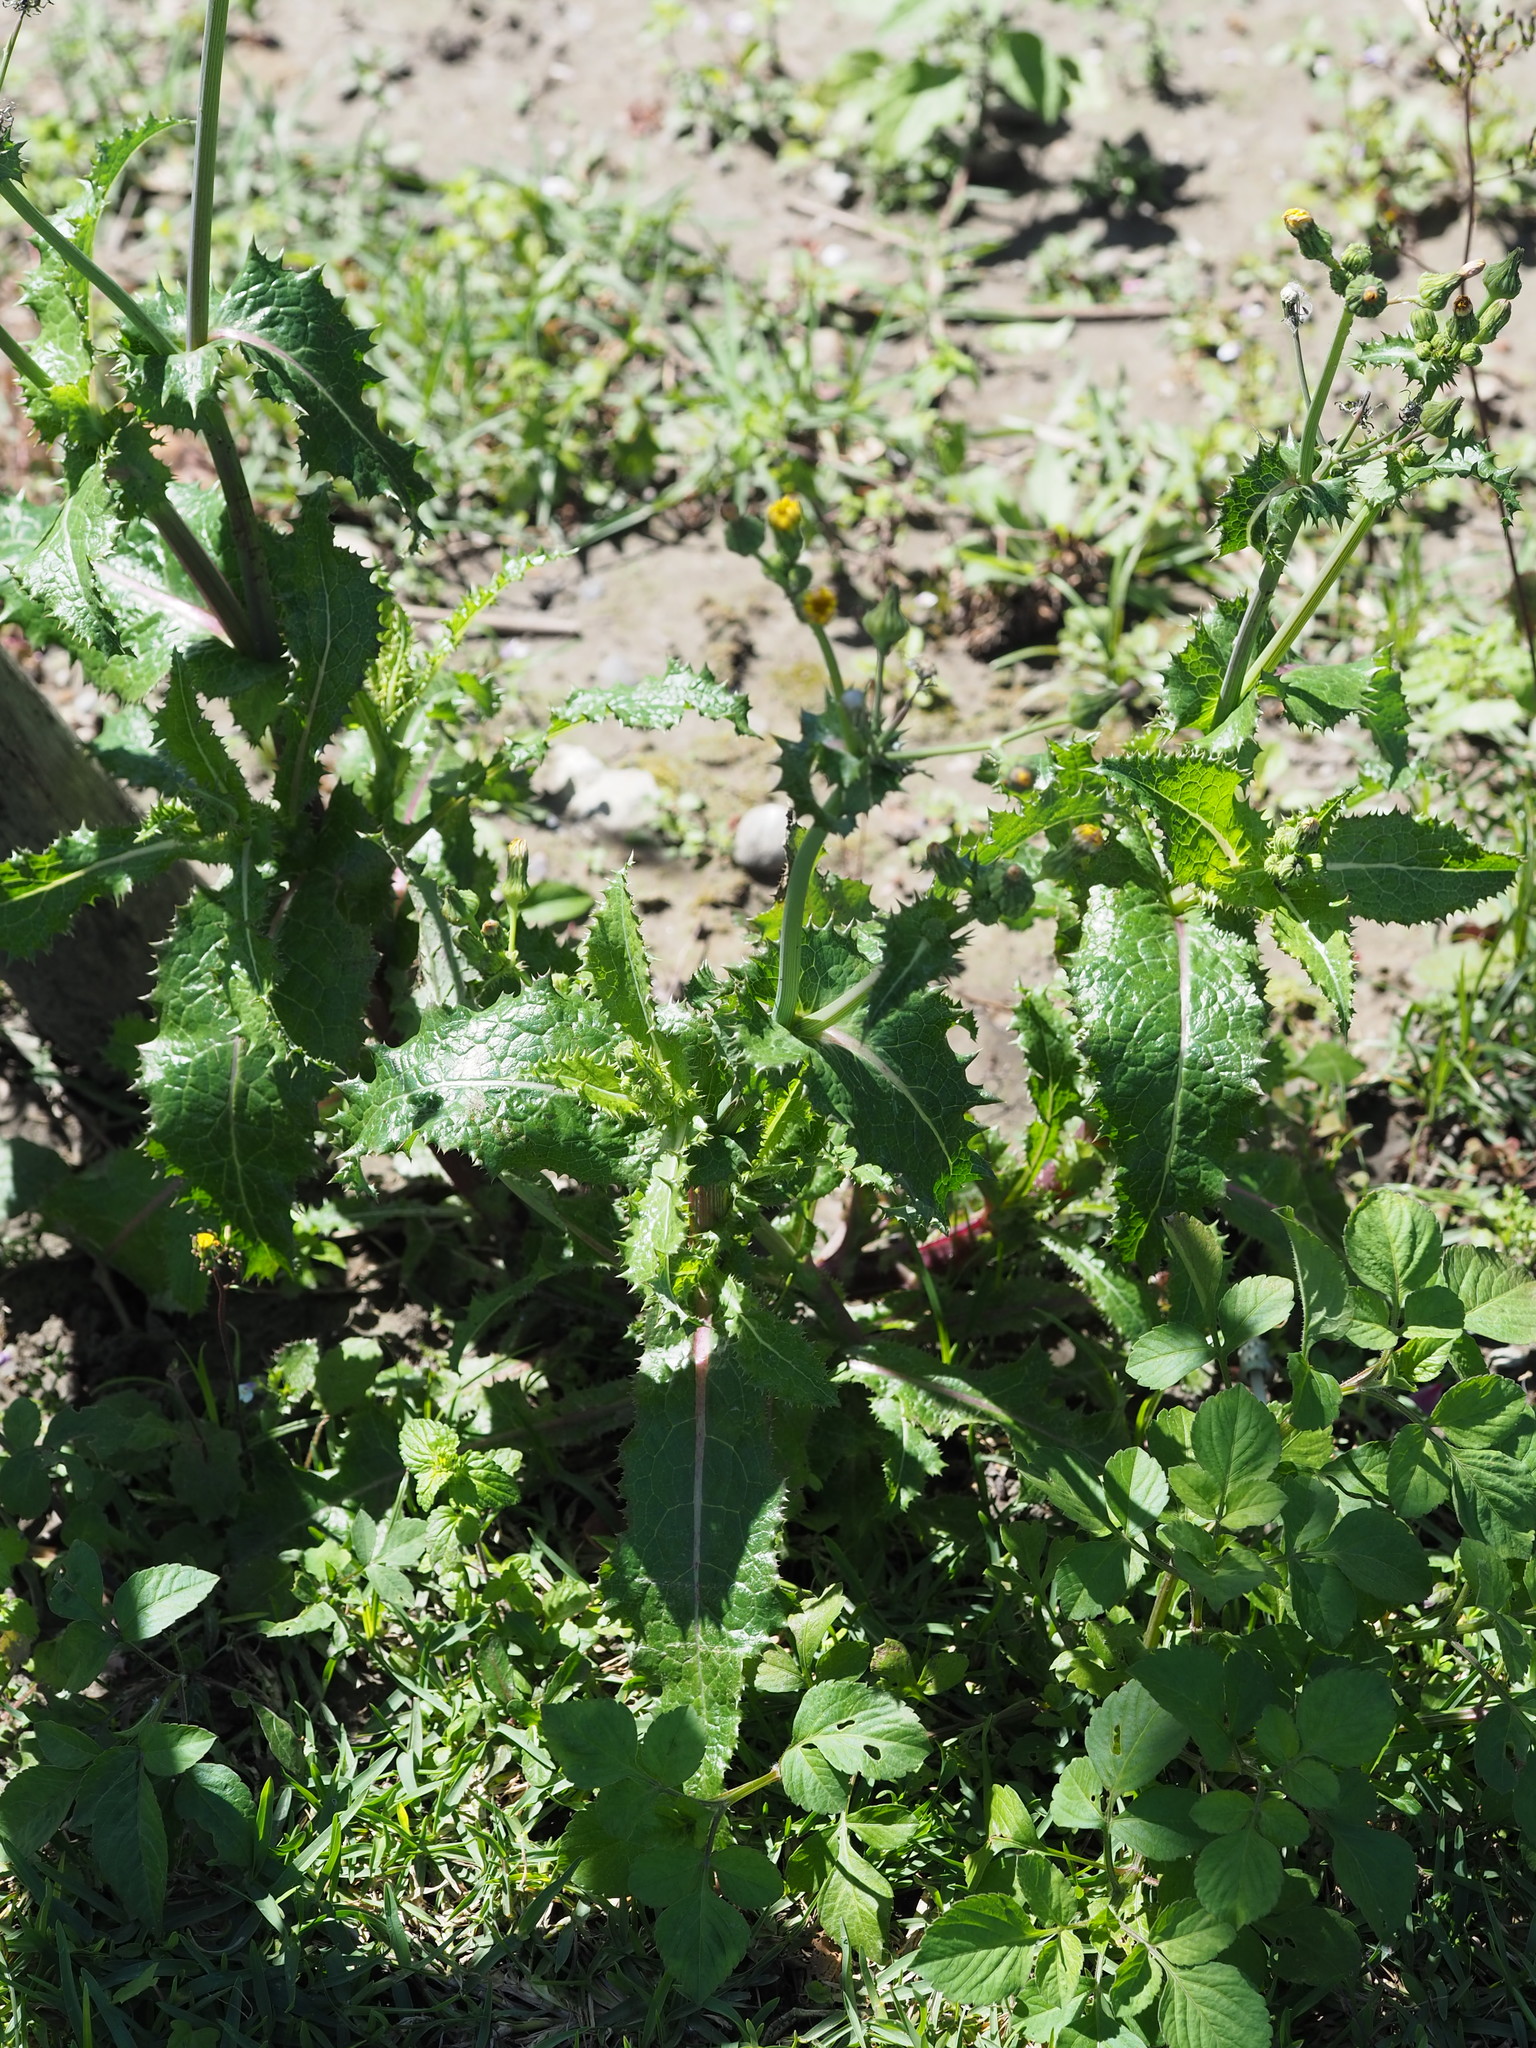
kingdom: Plantae
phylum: Tracheophyta
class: Magnoliopsida
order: Asterales
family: Asteraceae
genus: Sonchus
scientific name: Sonchus asper
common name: Prickly sow-thistle
